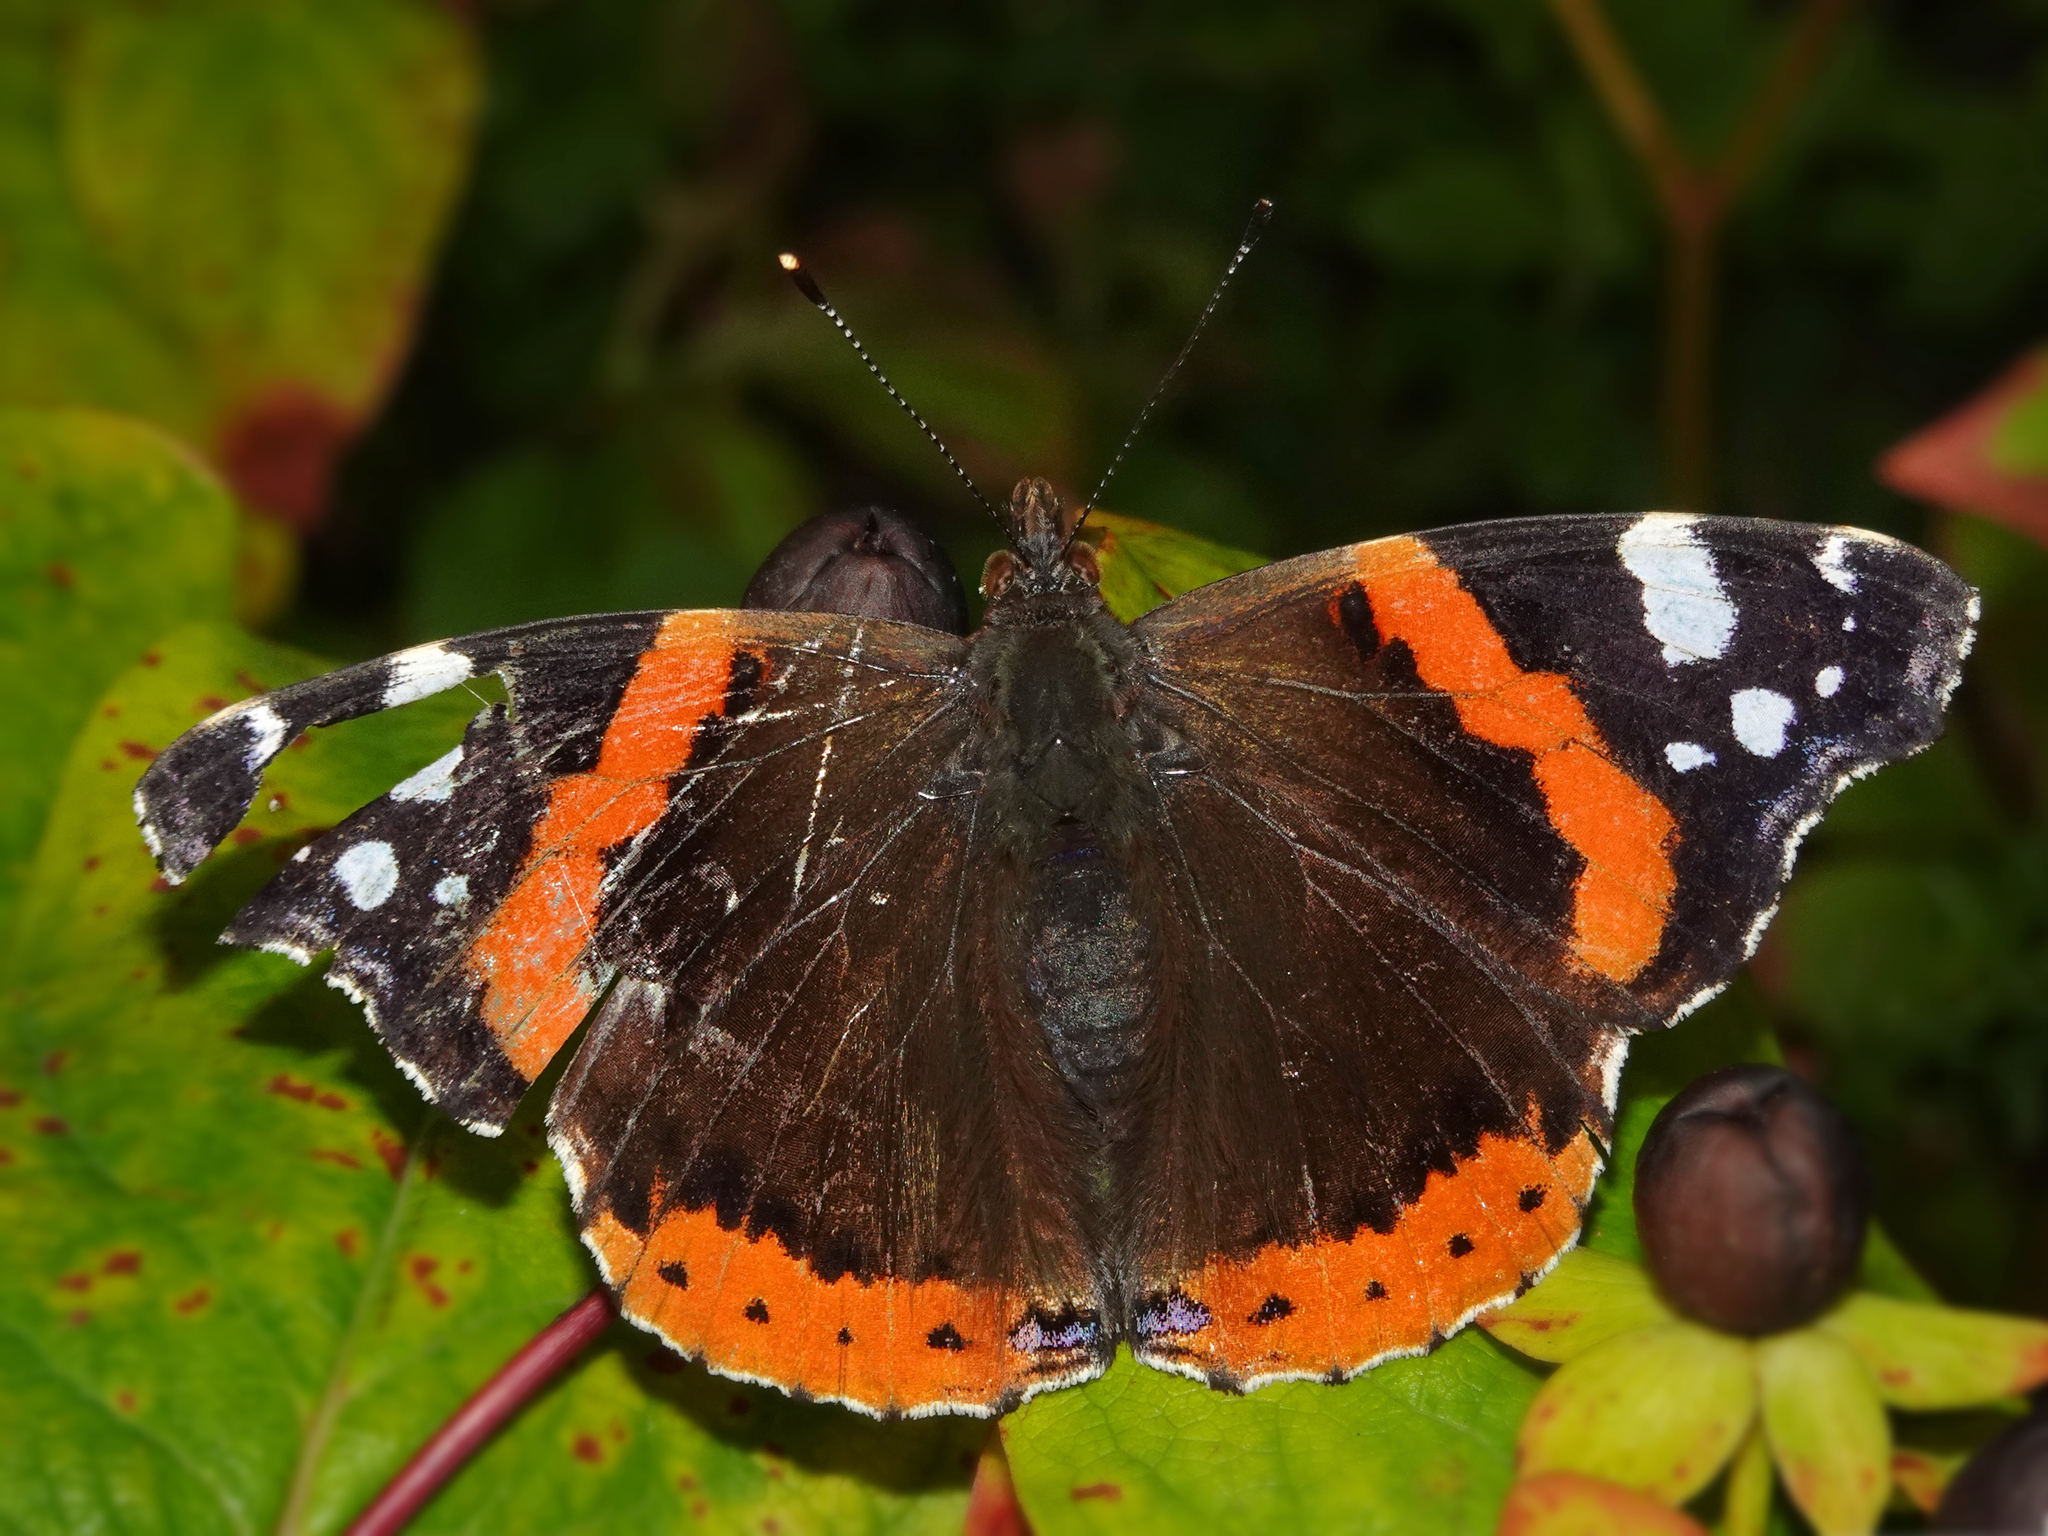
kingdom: Animalia
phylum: Arthropoda
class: Insecta
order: Lepidoptera
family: Nymphalidae
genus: Vanessa
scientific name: Vanessa atalanta
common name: Red admiral
